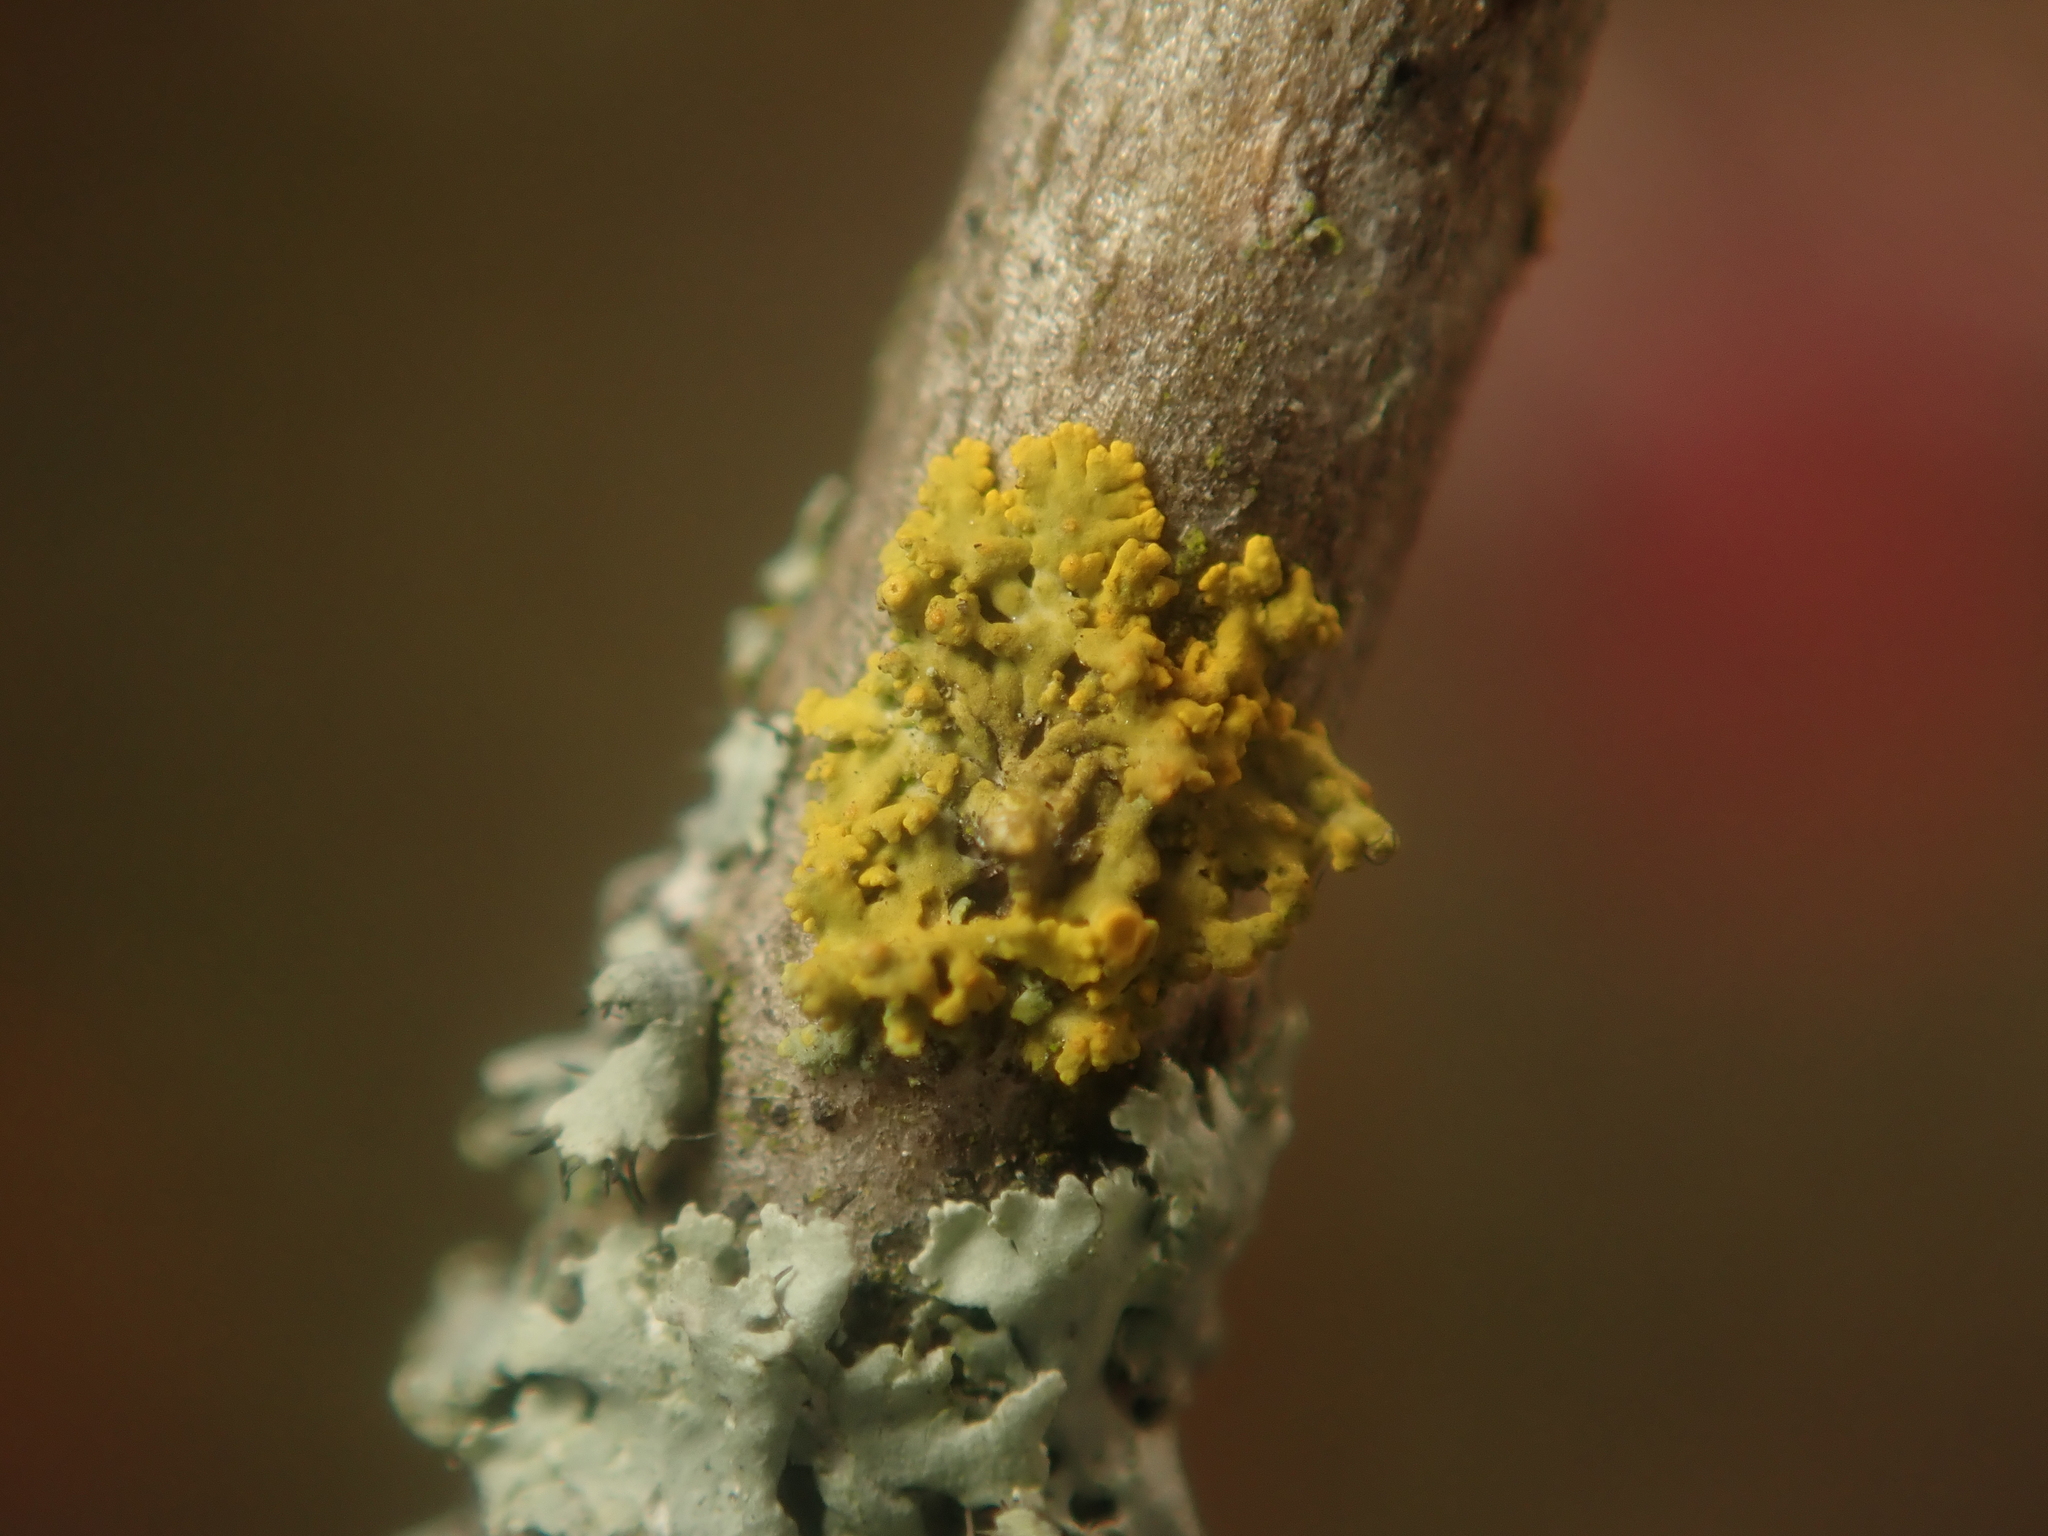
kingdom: Fungi
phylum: Ascomycota
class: Lecanoromycetes
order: Teloschistales
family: Teloschistaceae
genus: Polycauliona
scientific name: Polycauliona polycarpa
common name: Pin-cushion sunburst lichen
